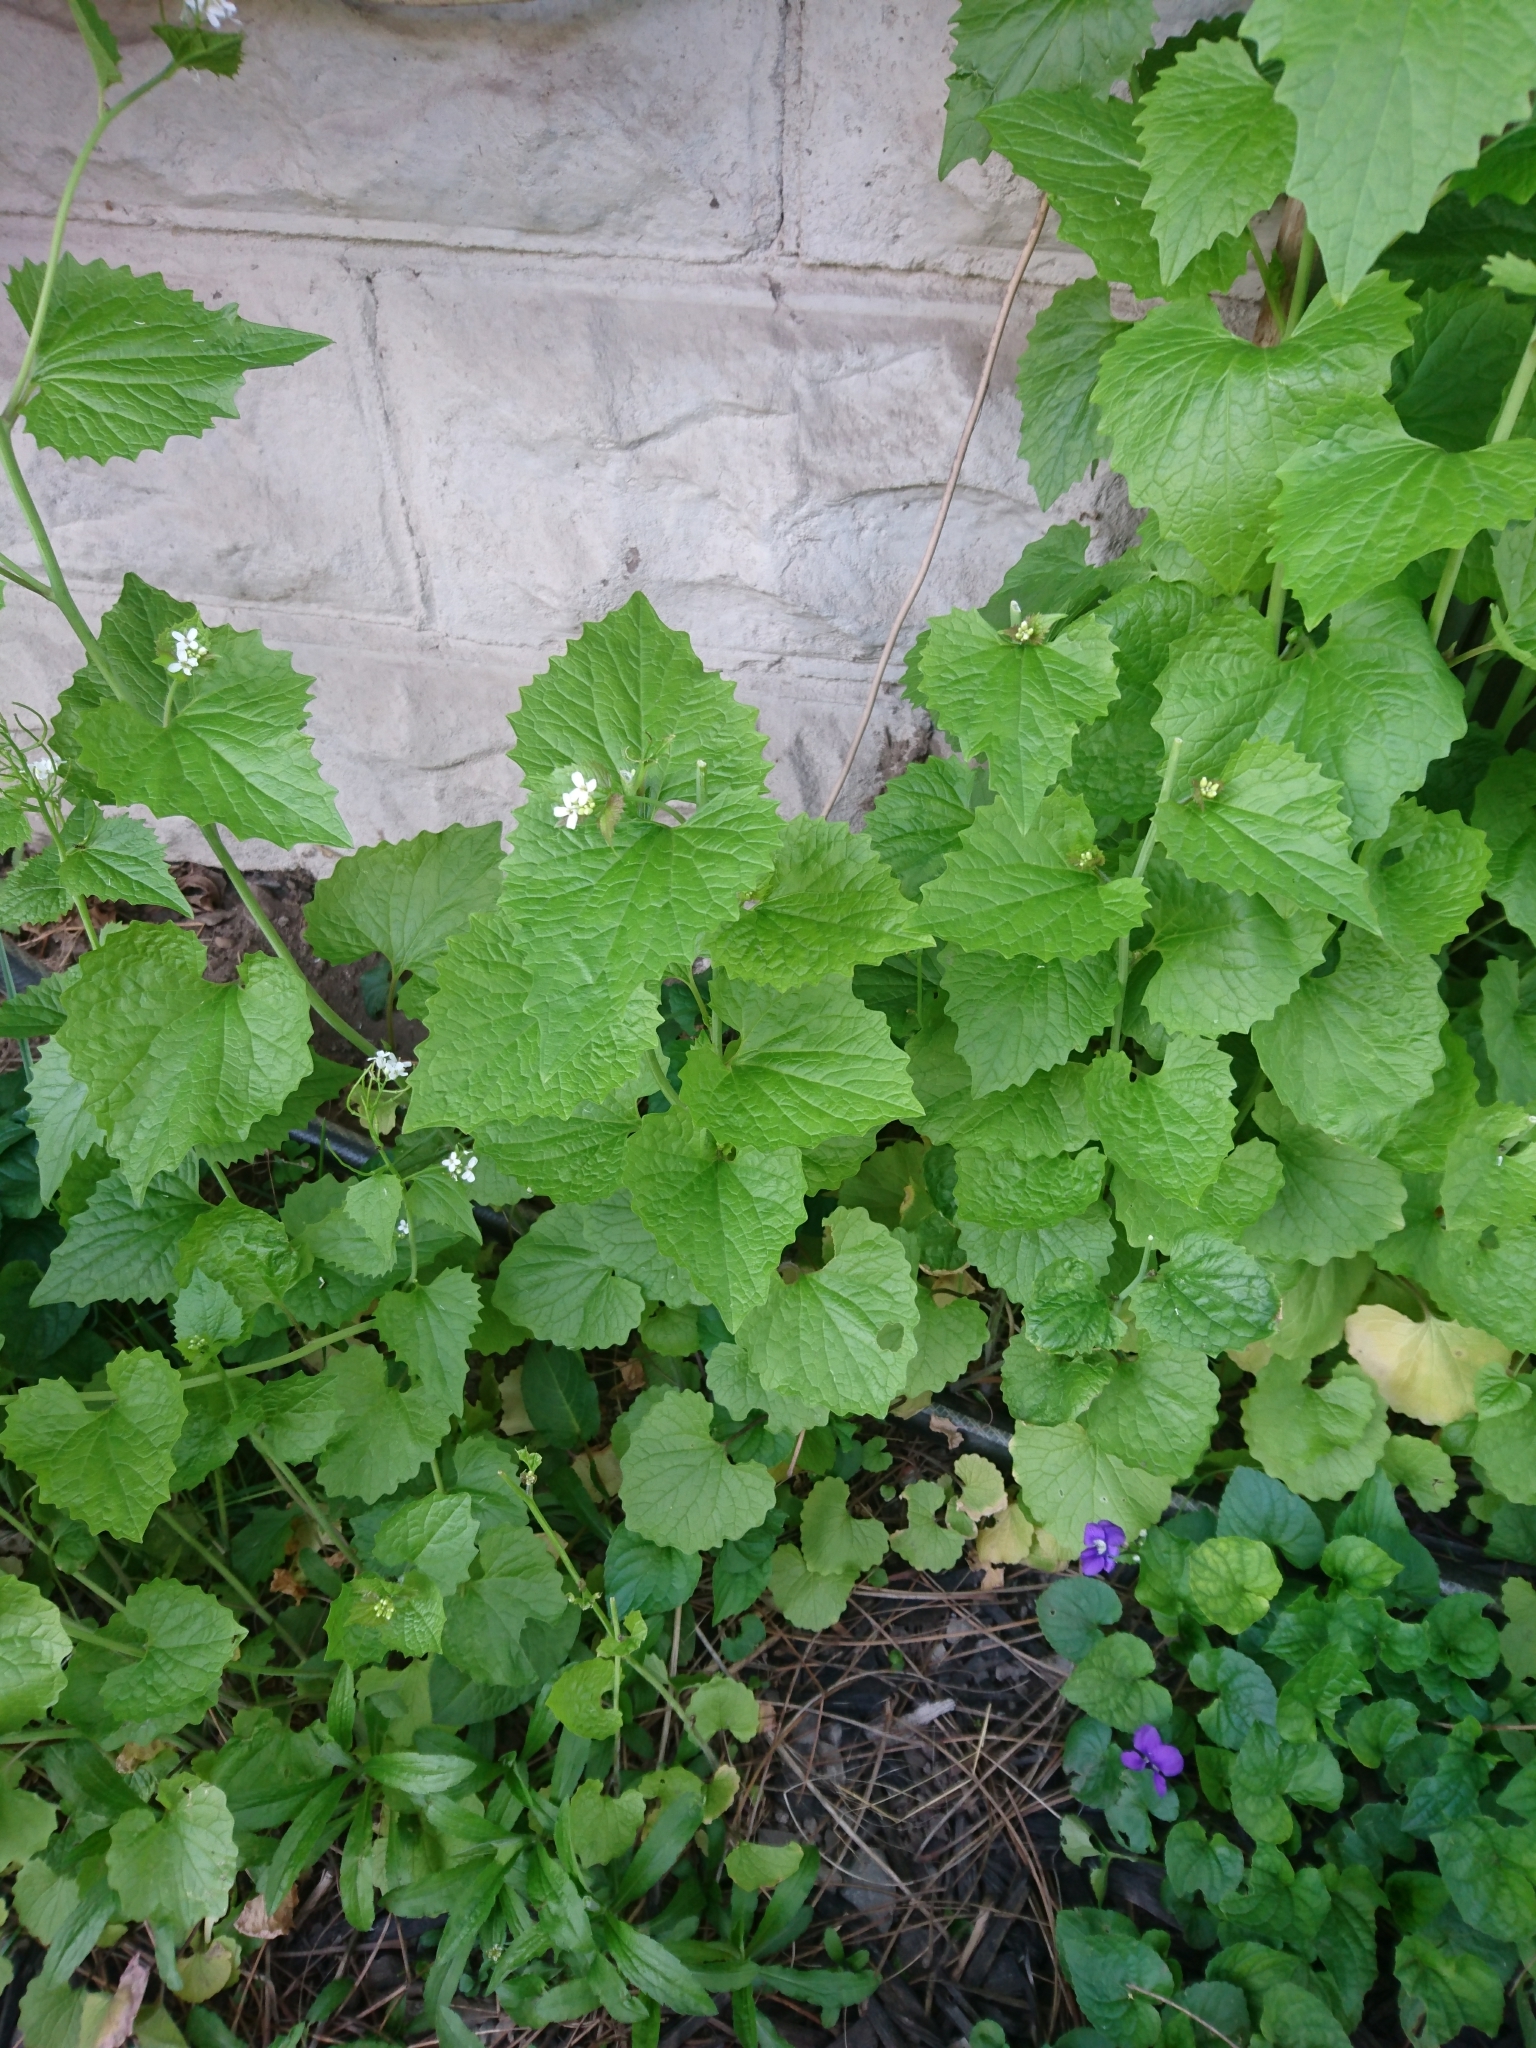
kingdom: Plantae
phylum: Tracheophyta
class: Magnoliopsida
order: Brassicales
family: Brassicaceae
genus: Alliaria
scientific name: Alliaria petiolata
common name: Garlic mustard
